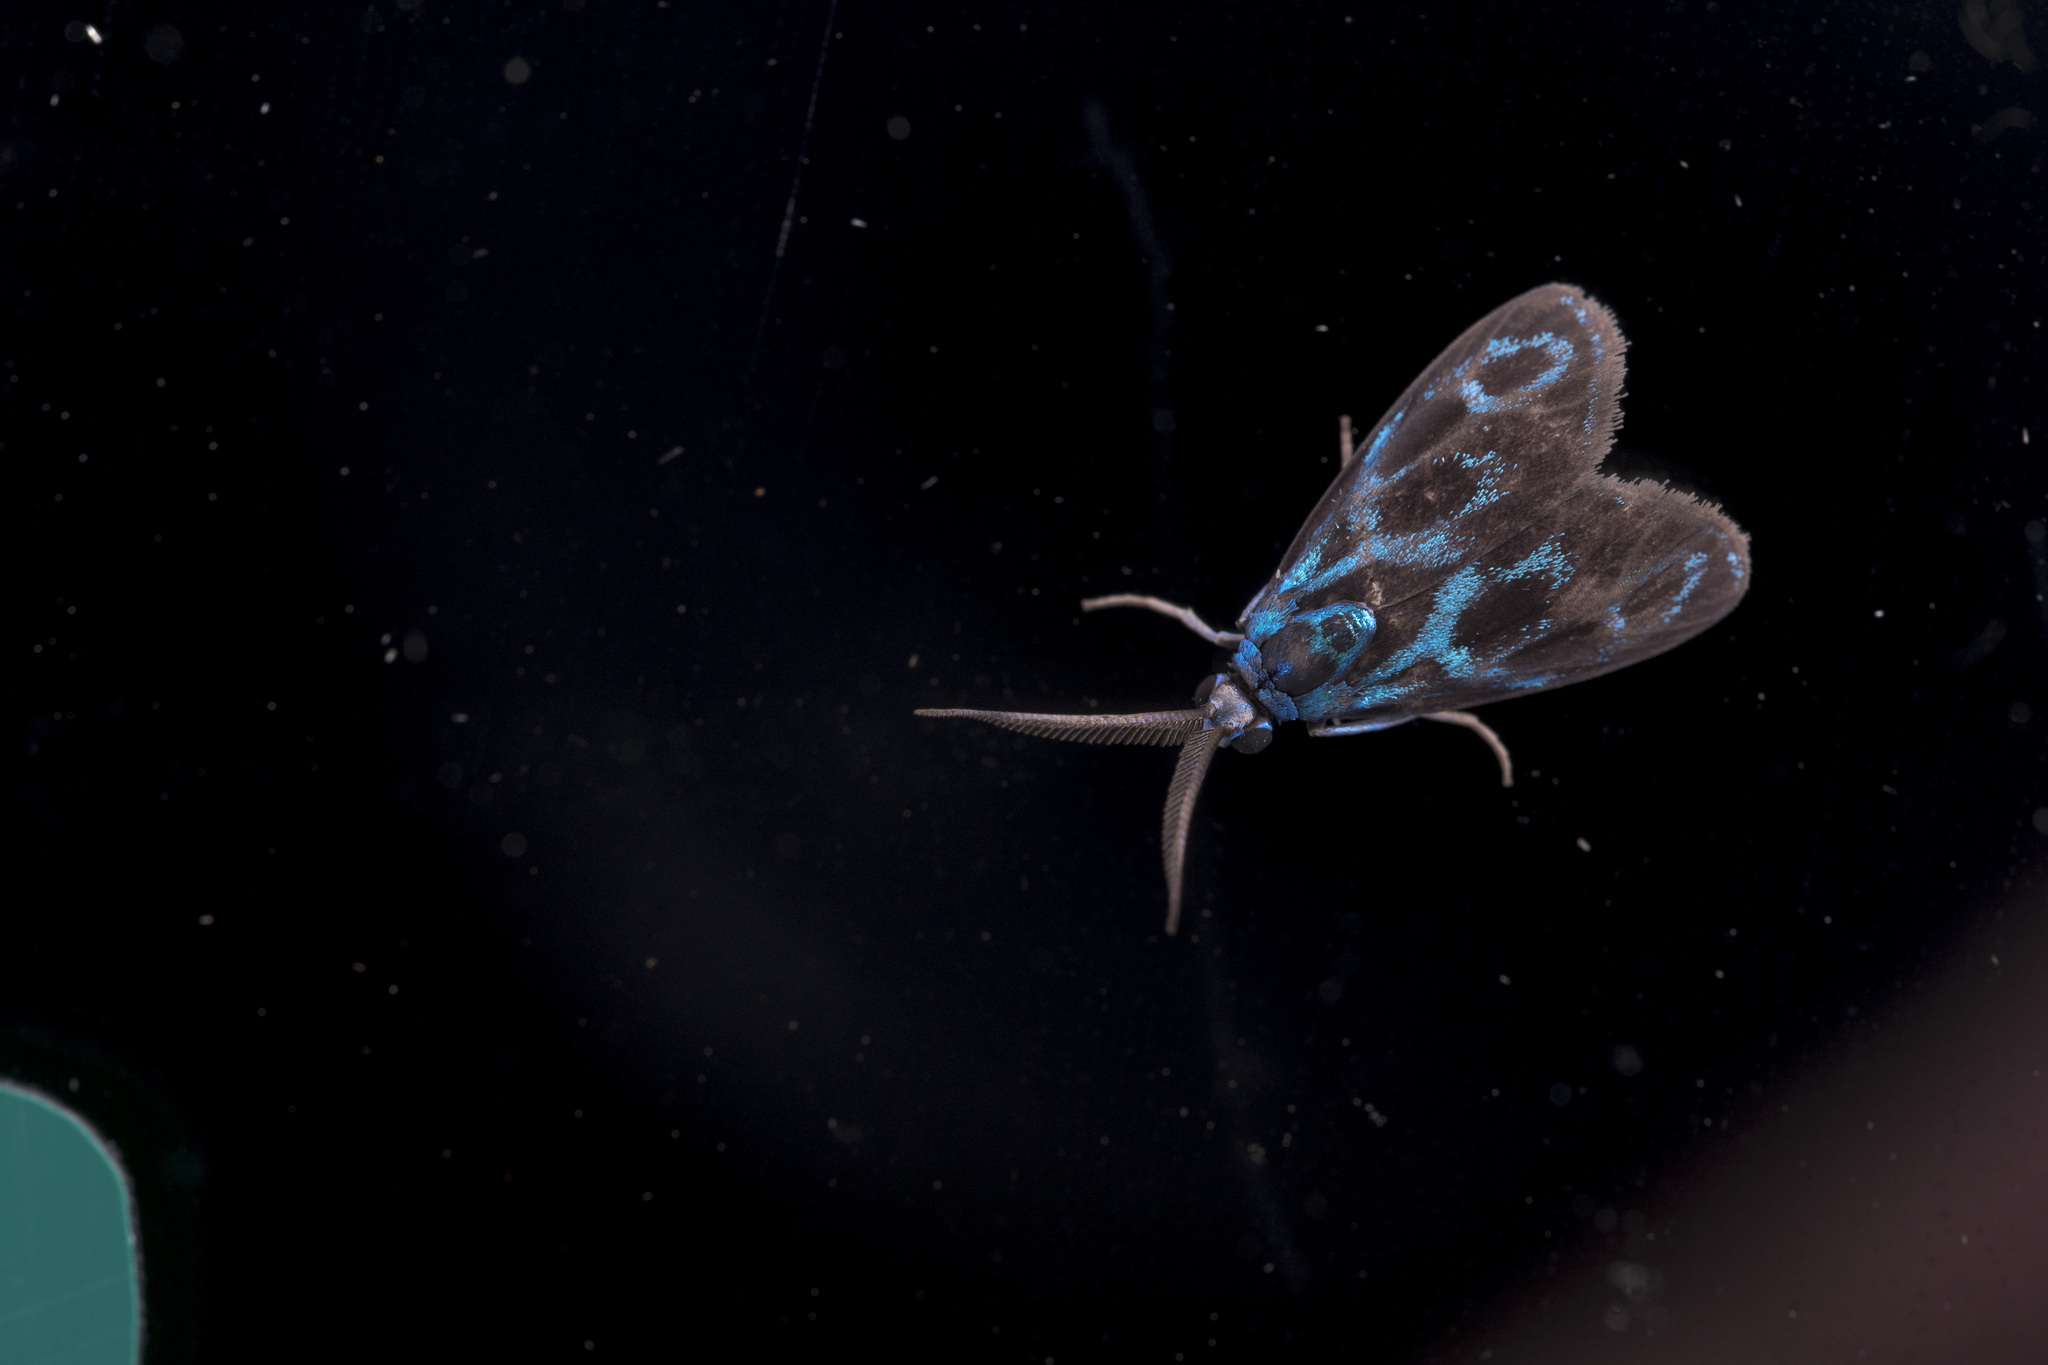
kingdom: Animalia
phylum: Arthropoda
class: Insecta
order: Lepidoptera
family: Zygaenidae
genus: Clelea
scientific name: Clelea simplicior
